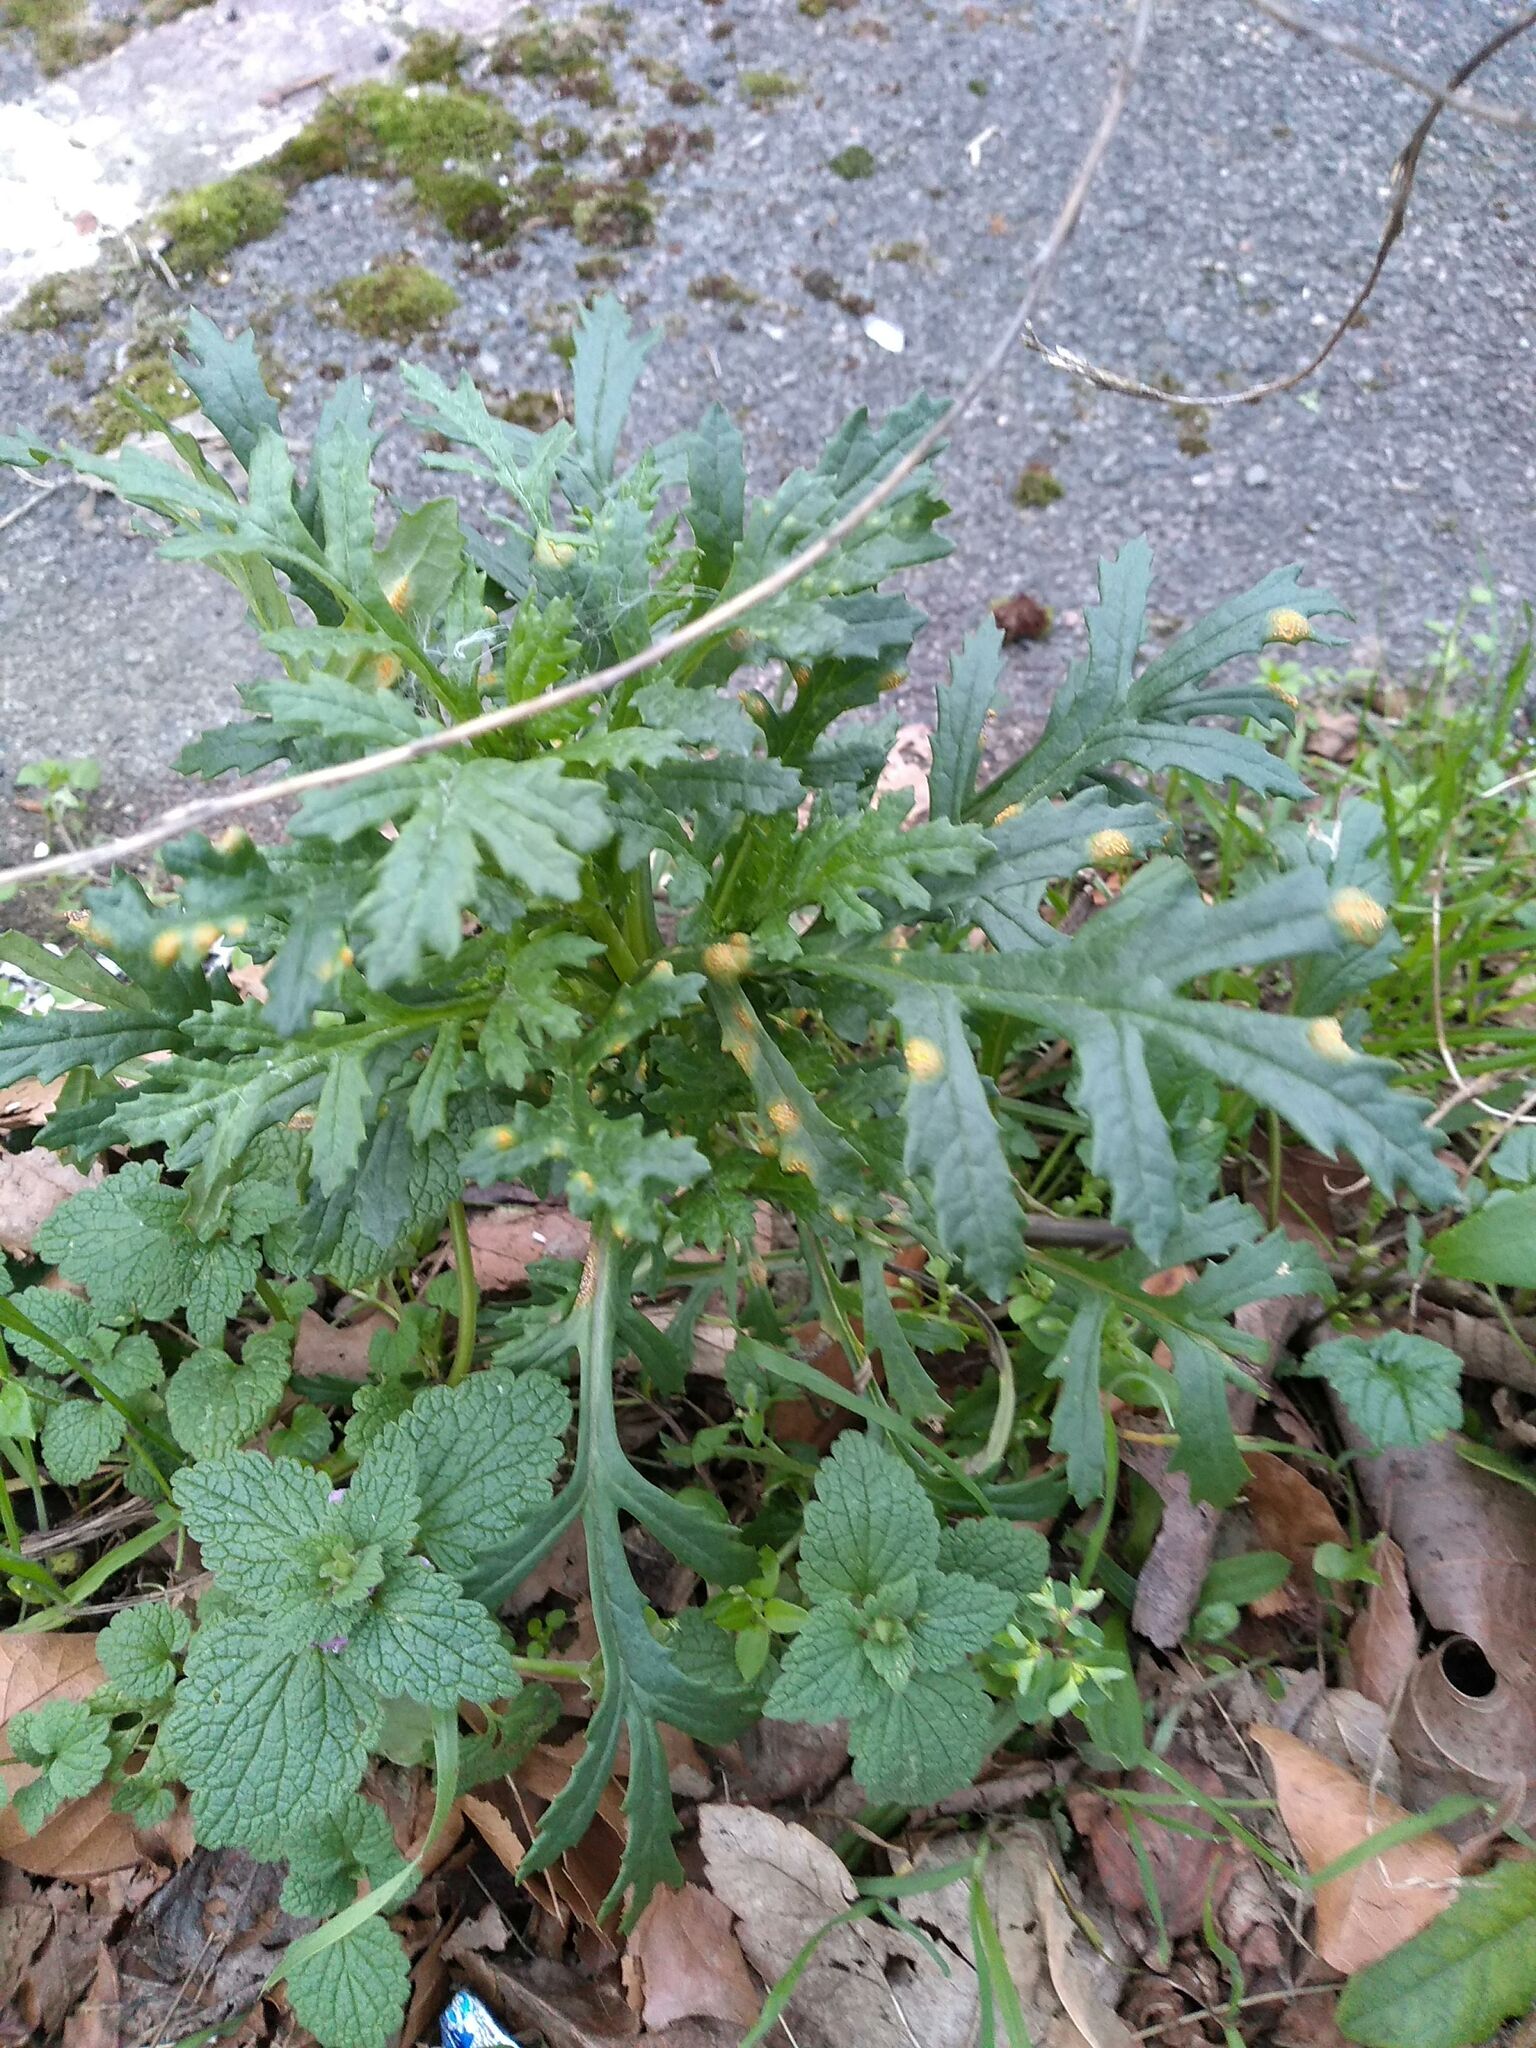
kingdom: Fungi
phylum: Basidiomycota
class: Pucciniomycetes
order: Pucciniales
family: Pucciniaceae
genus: Puccinia
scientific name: Puccinia lagenophorae
